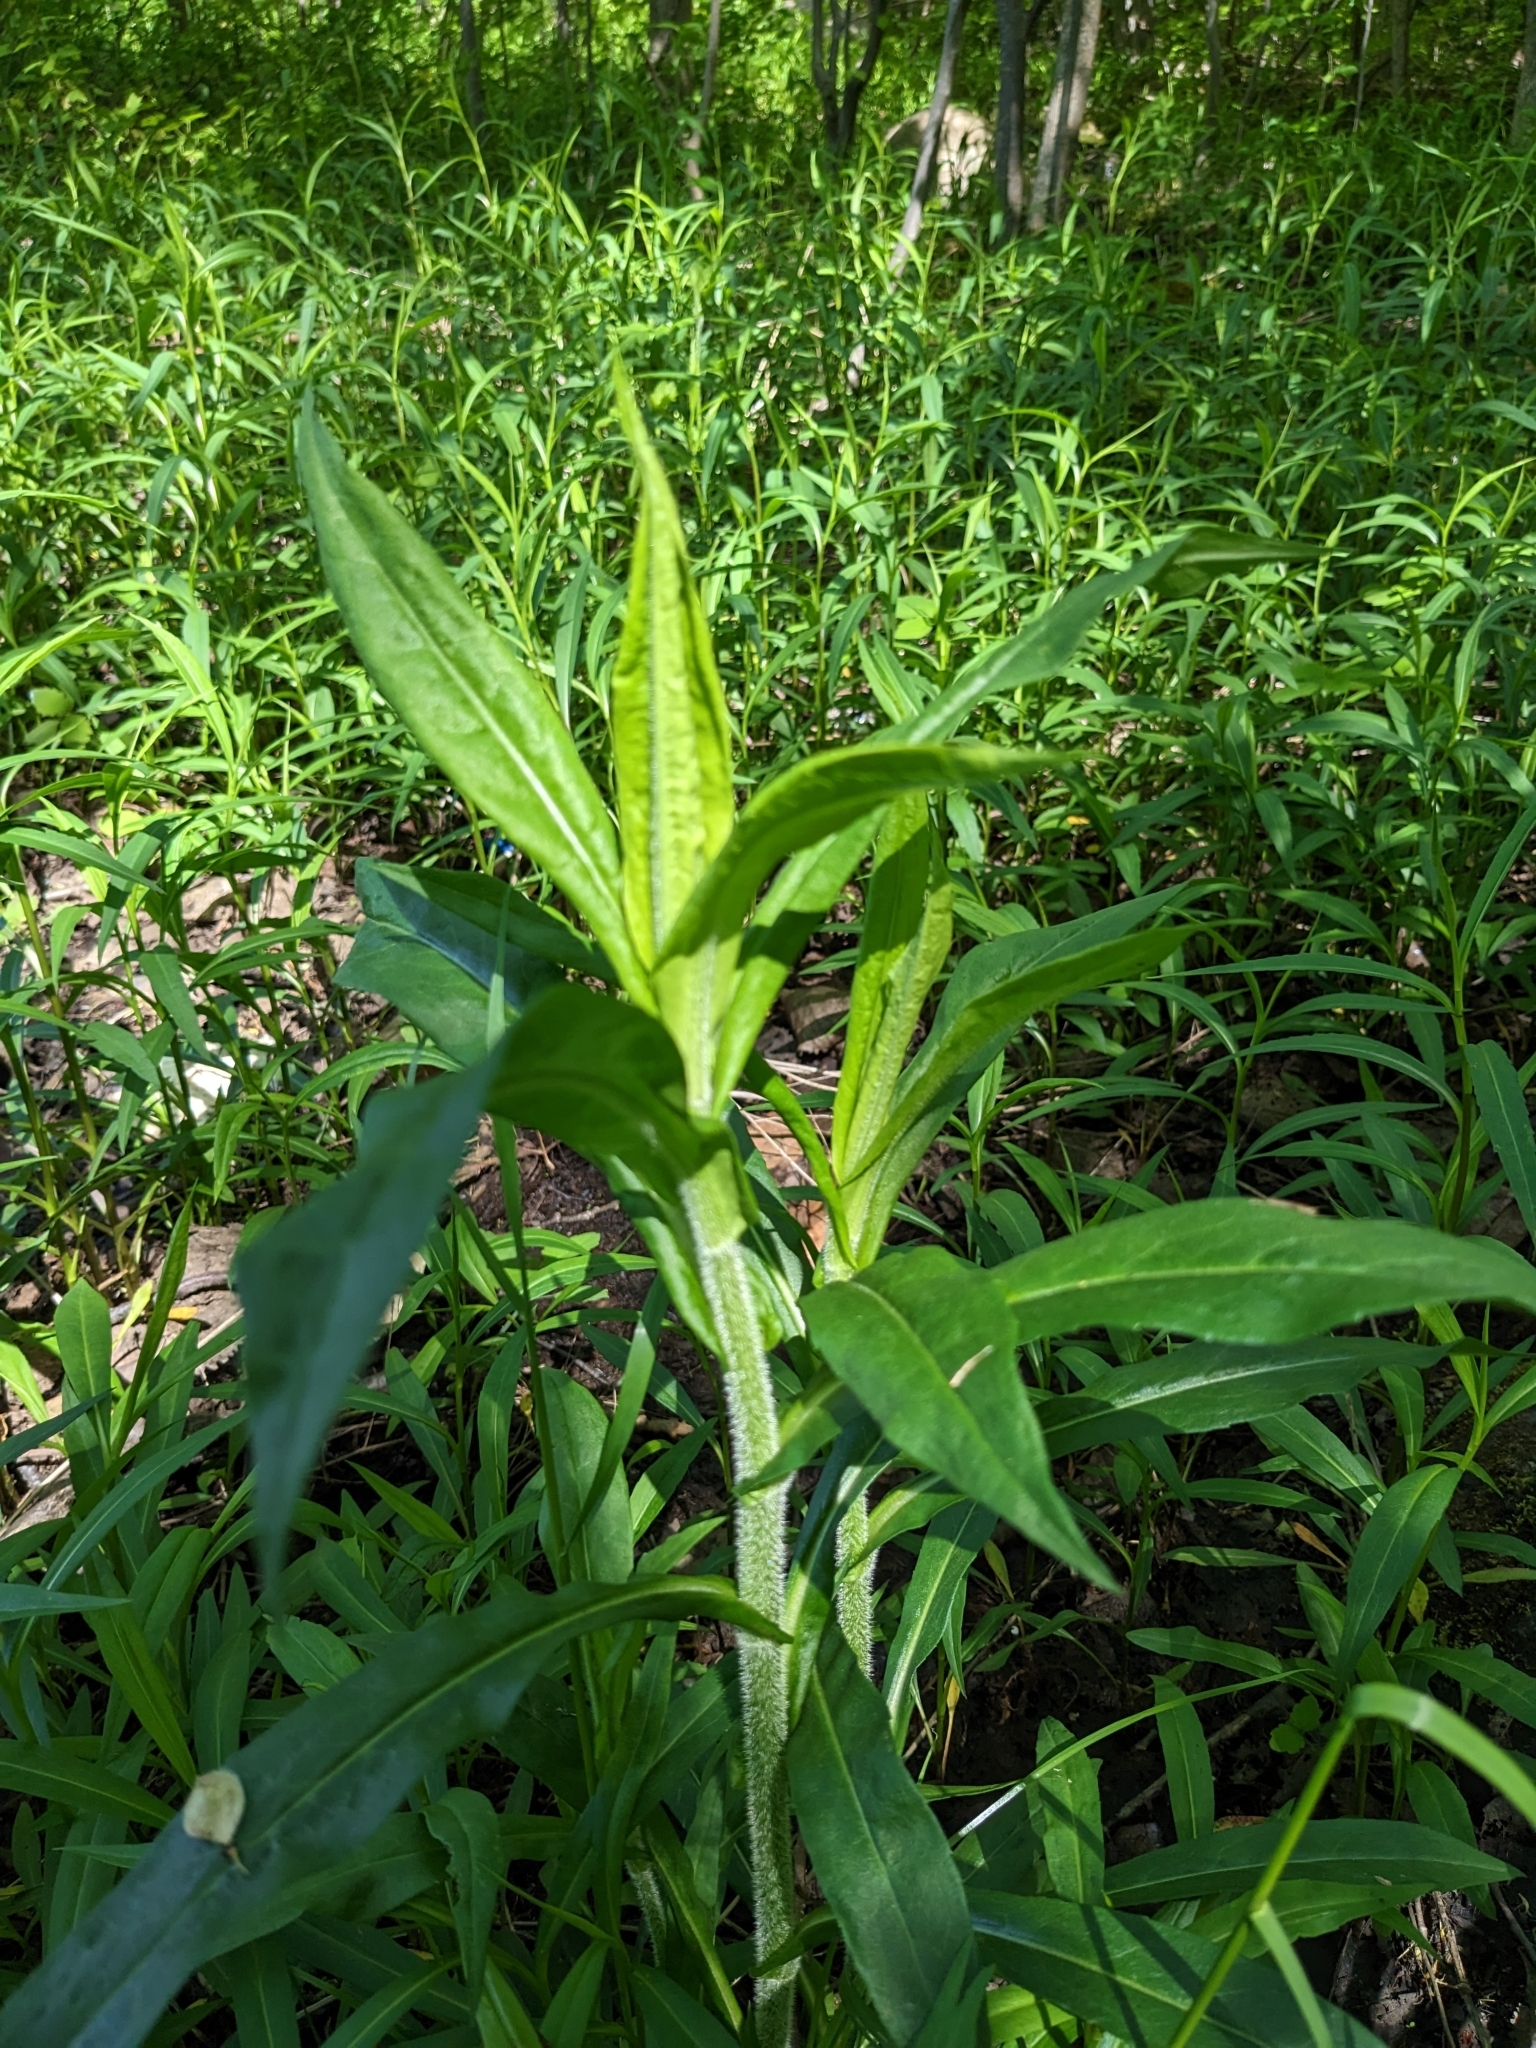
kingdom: Plantae
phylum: Tracheophyta
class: Magnoliopsida
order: Brassicales
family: Brassicaceae
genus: Hesperis
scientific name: Hesperis matronalis
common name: Dame's-violet
